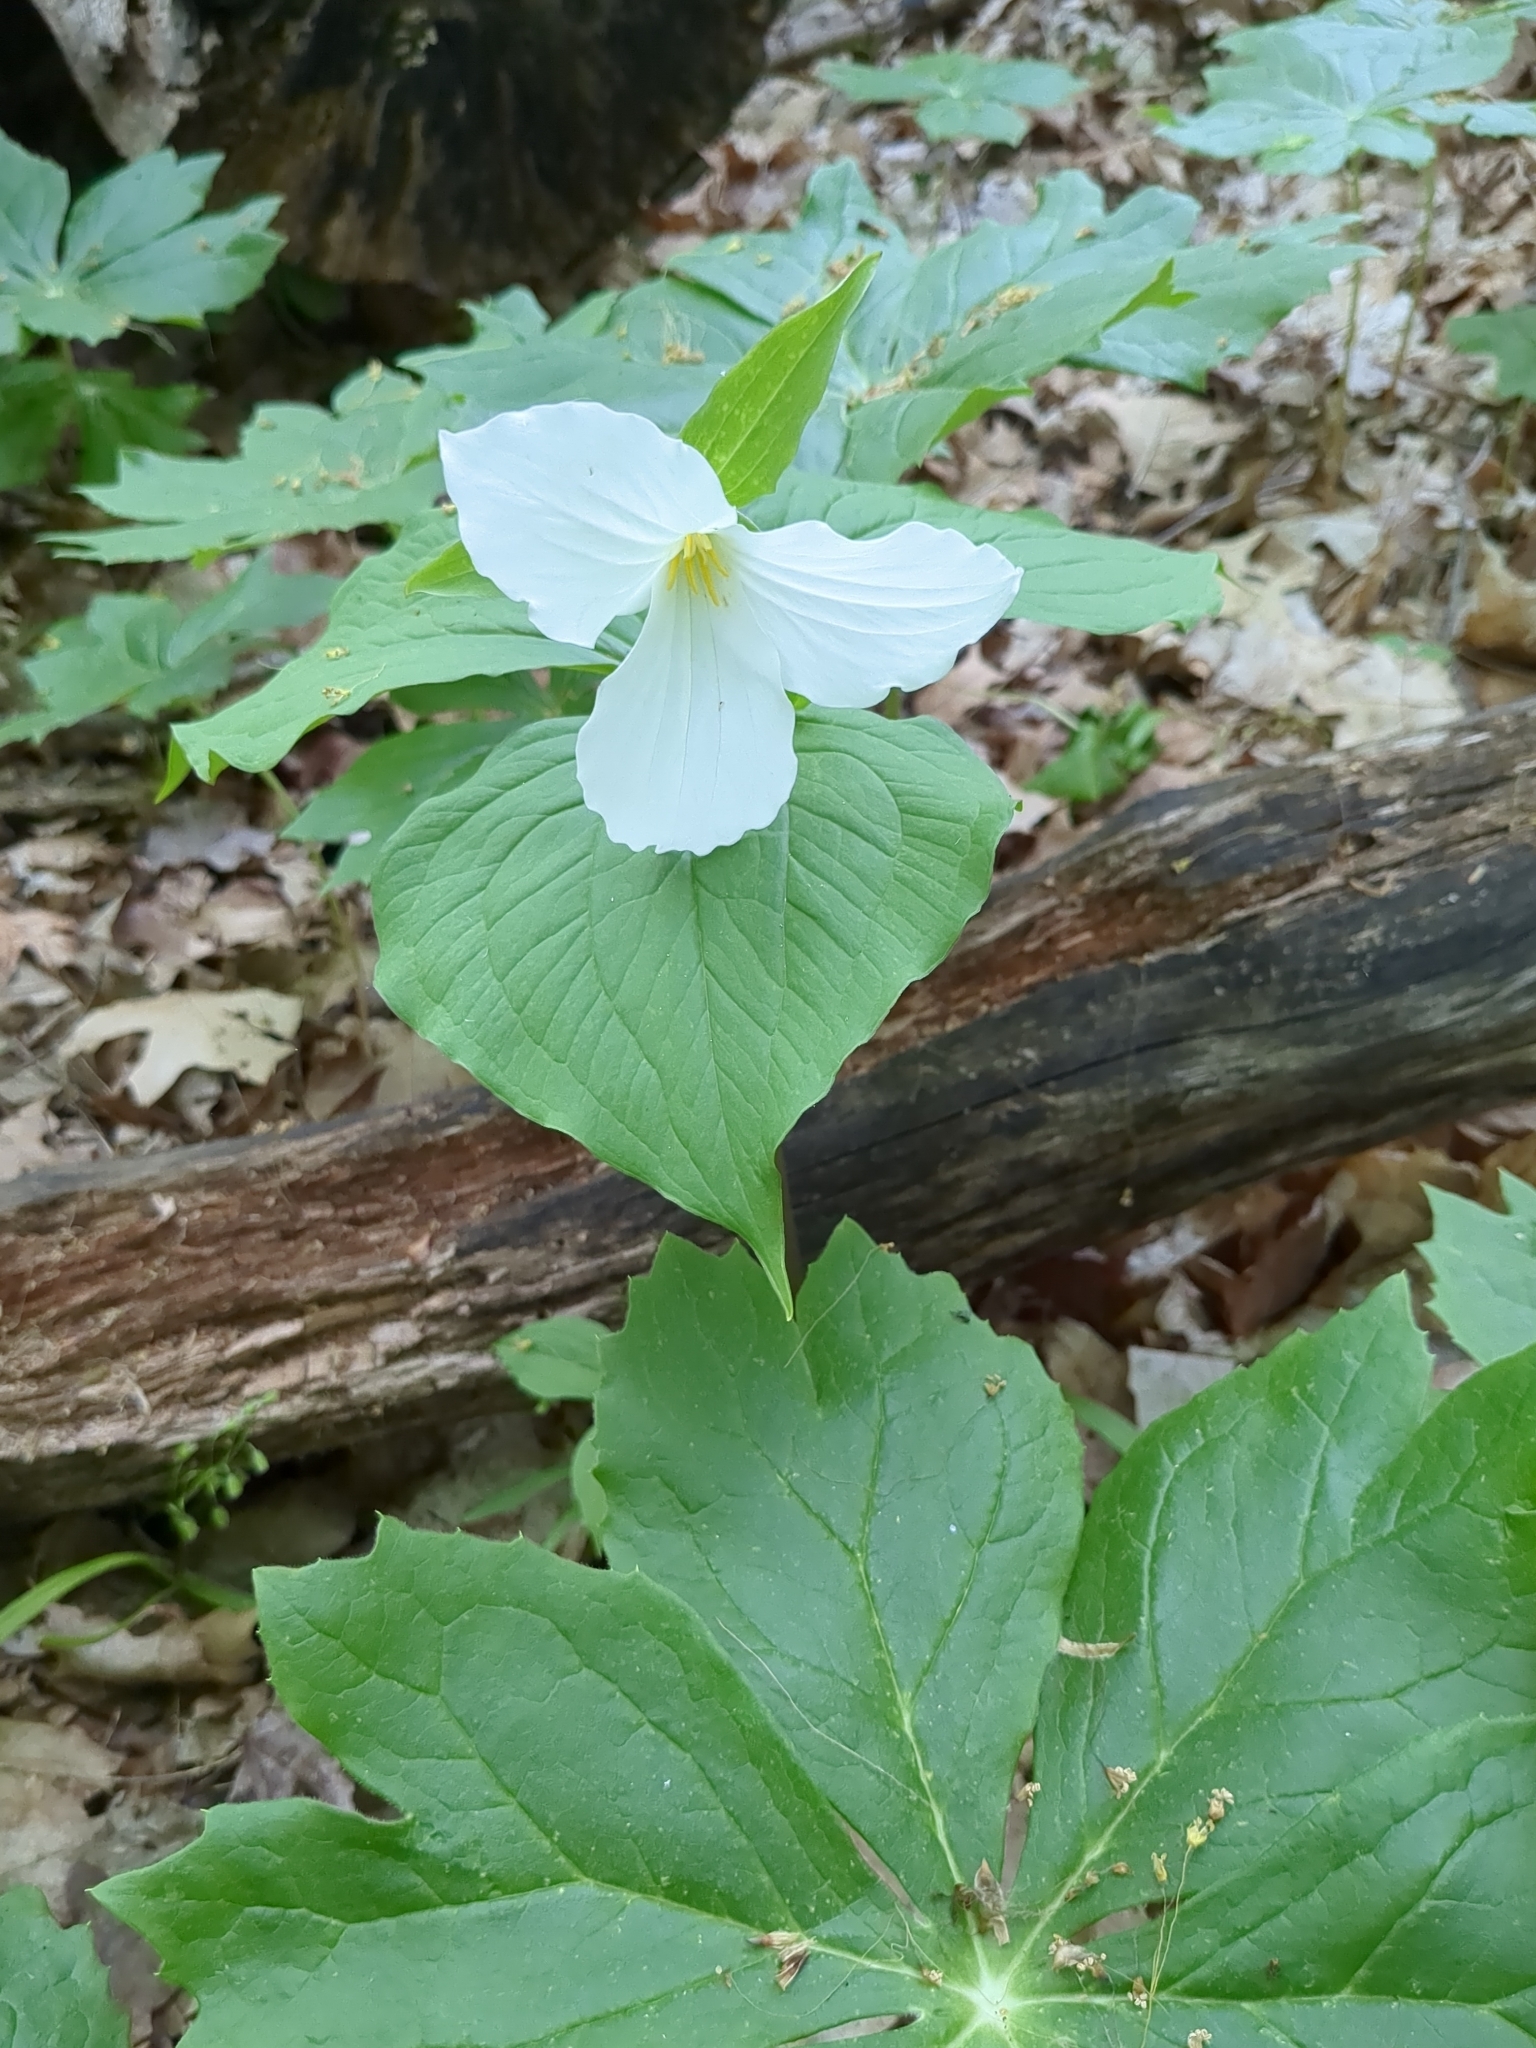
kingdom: Plantae
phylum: Tracheophyta
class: Liliopsida
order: Liliales
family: Melanthiaceae
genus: Trillium
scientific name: Trillium grandiflorum
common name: Great white trillium
